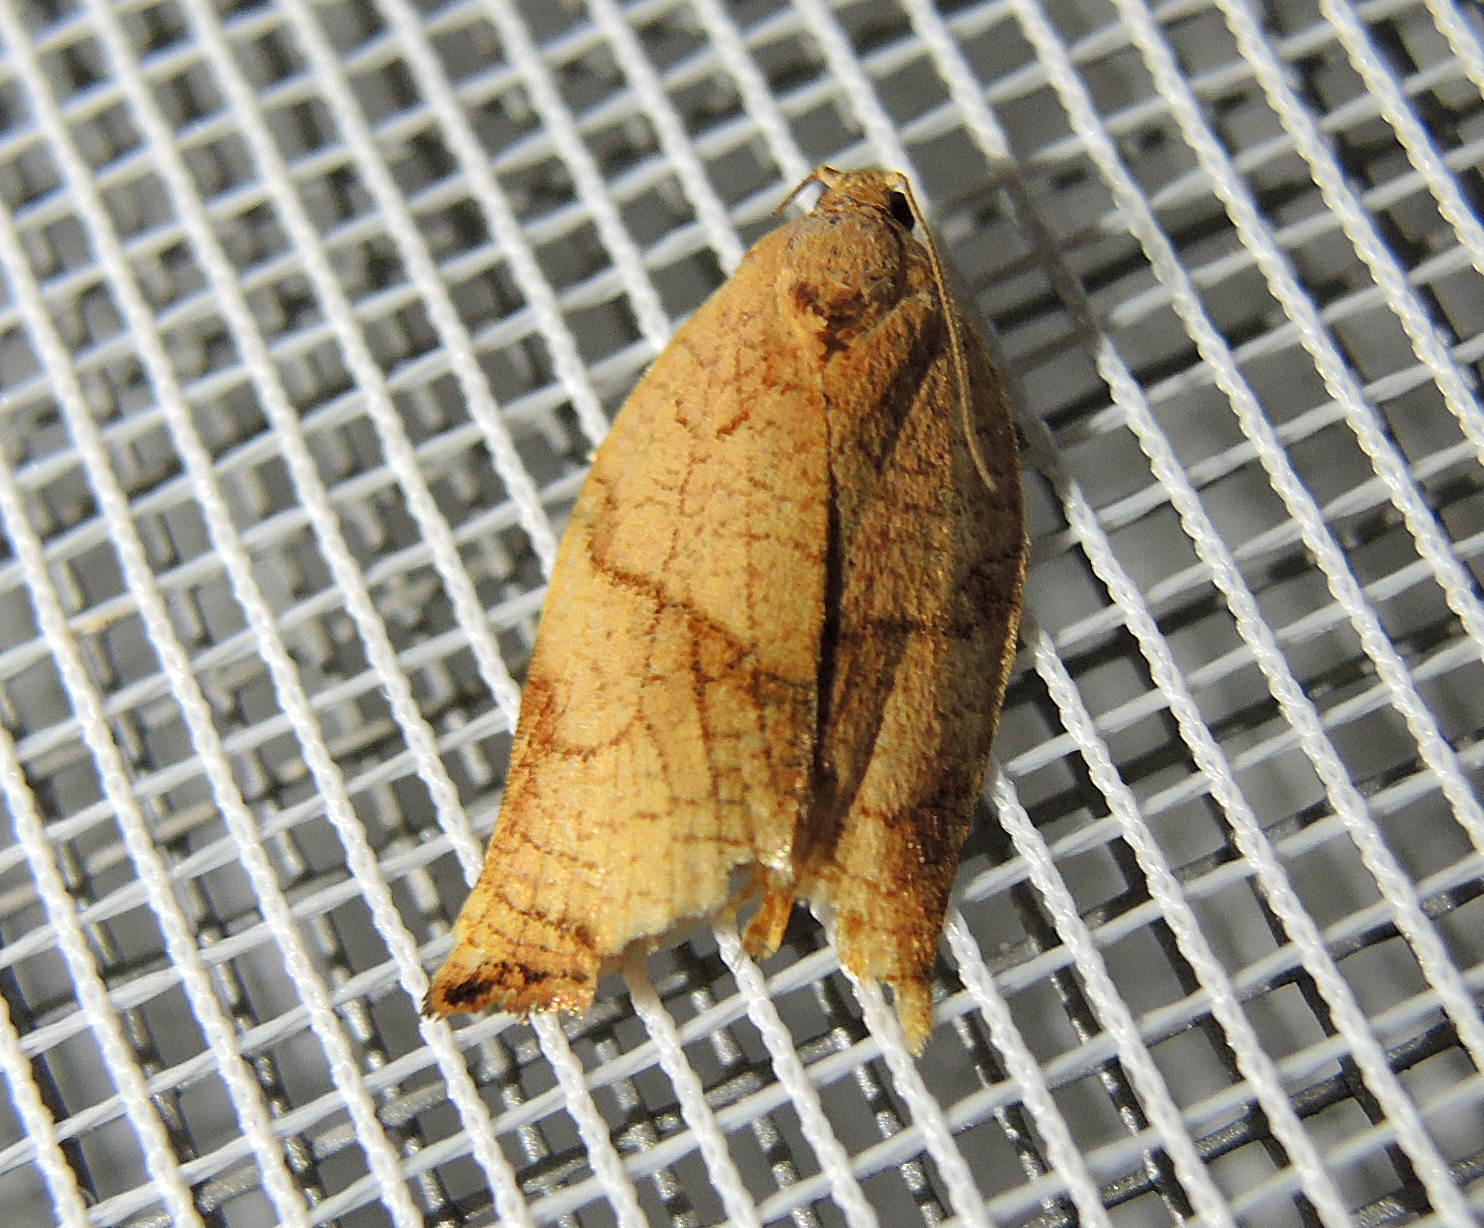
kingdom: Animalia
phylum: Arthropoda
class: Insecta
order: Lepidoptera
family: Tortricidae
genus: Archips
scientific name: Archips podana
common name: Large fruit-tree tortrix
